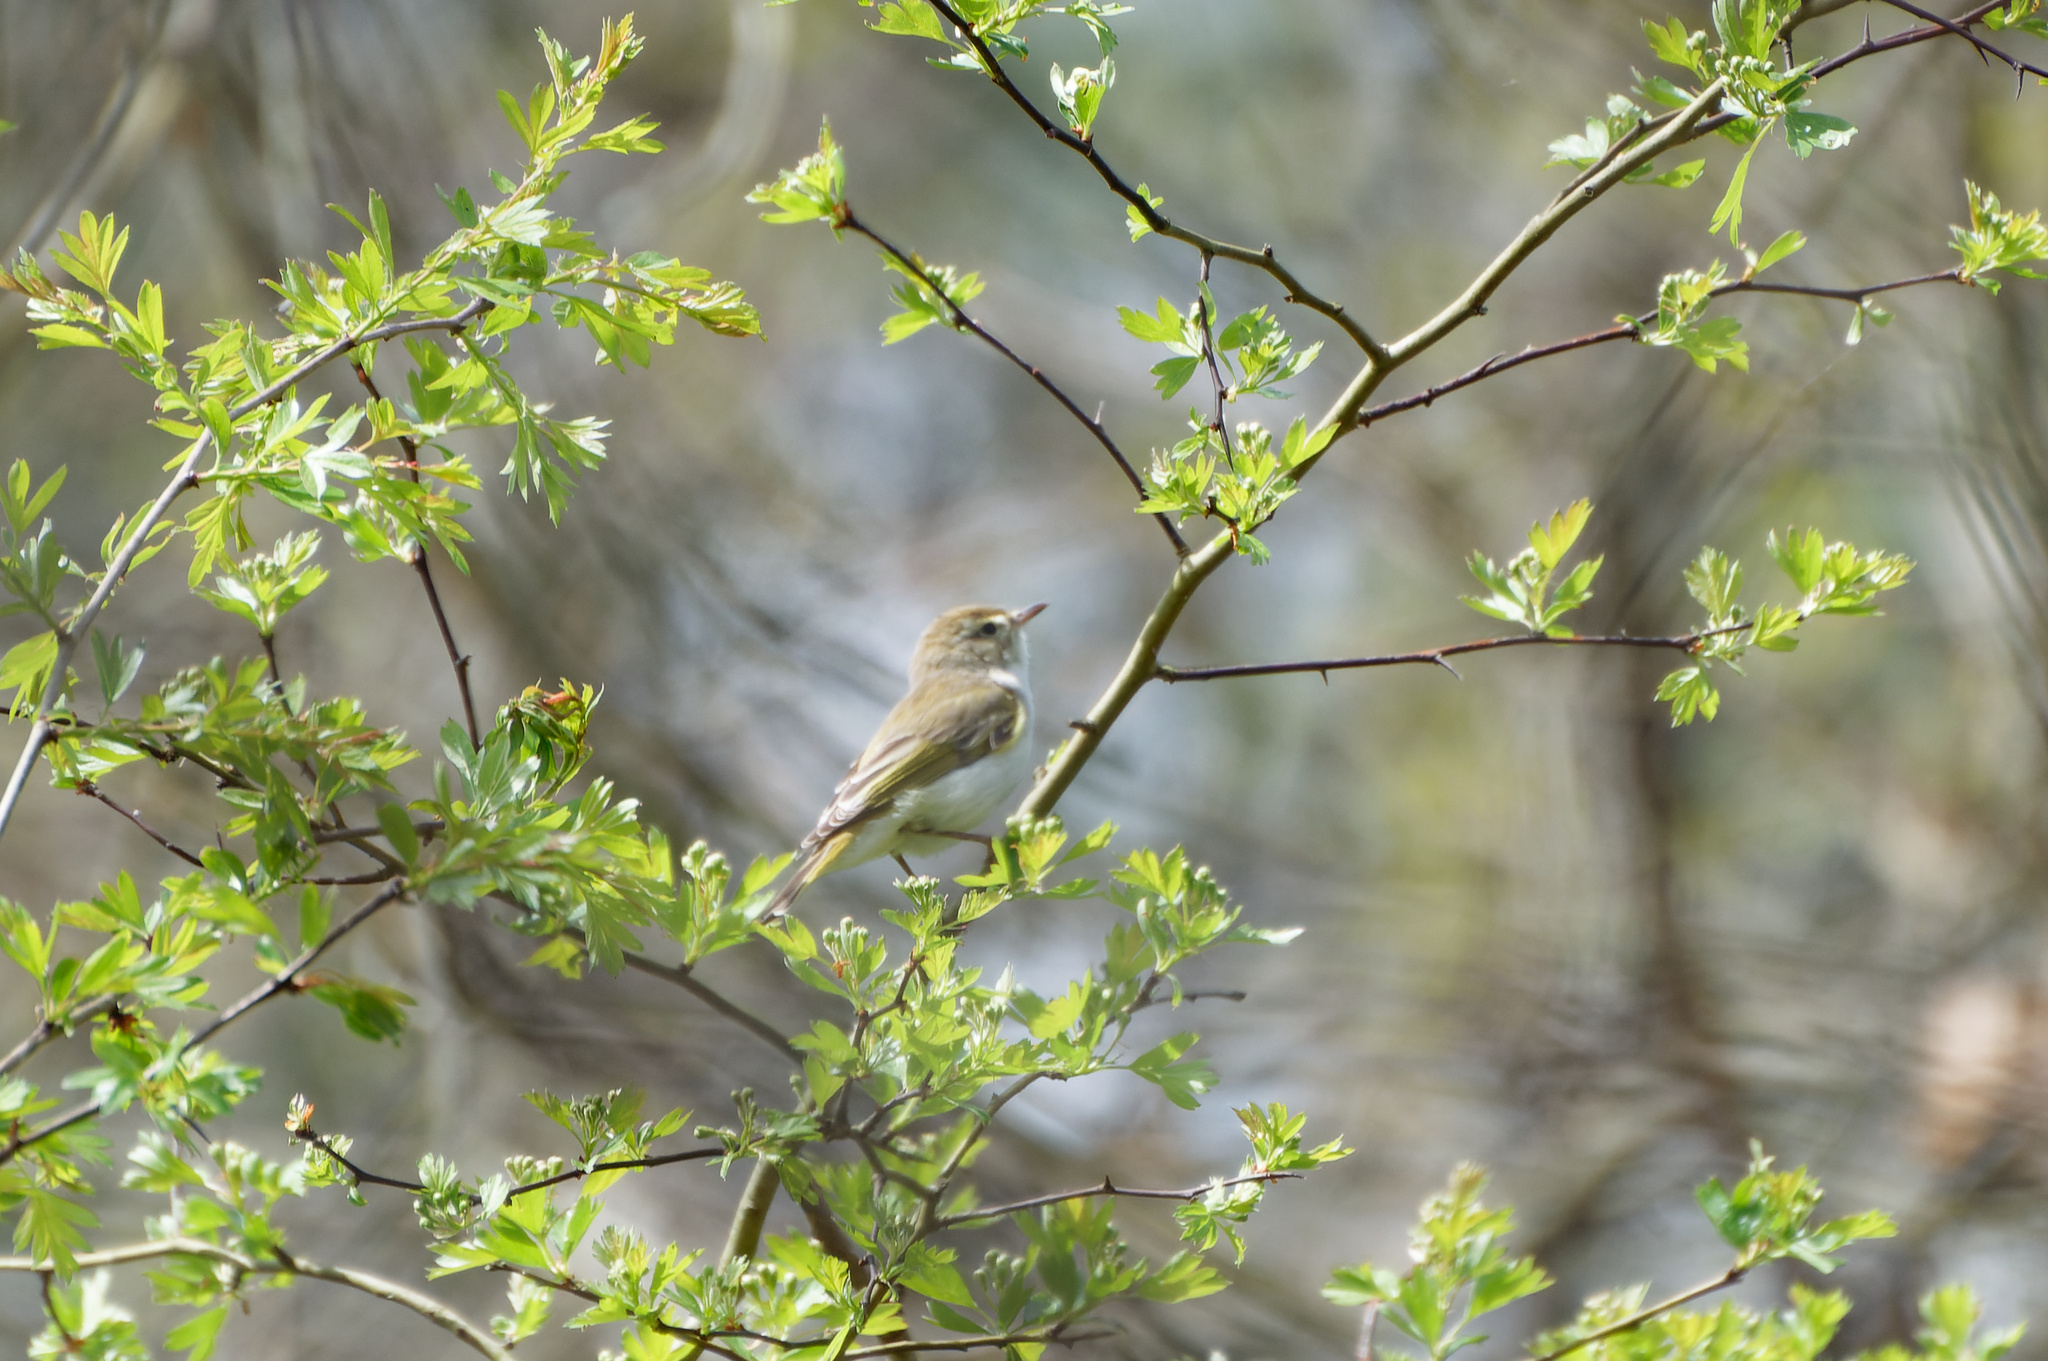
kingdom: Animalia
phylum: Chordata
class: Aves
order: Passeriformes
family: Phylloscopidae
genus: Phylloscopus
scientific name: Phylloscopus bonelli
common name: Western bonelli's warbler
